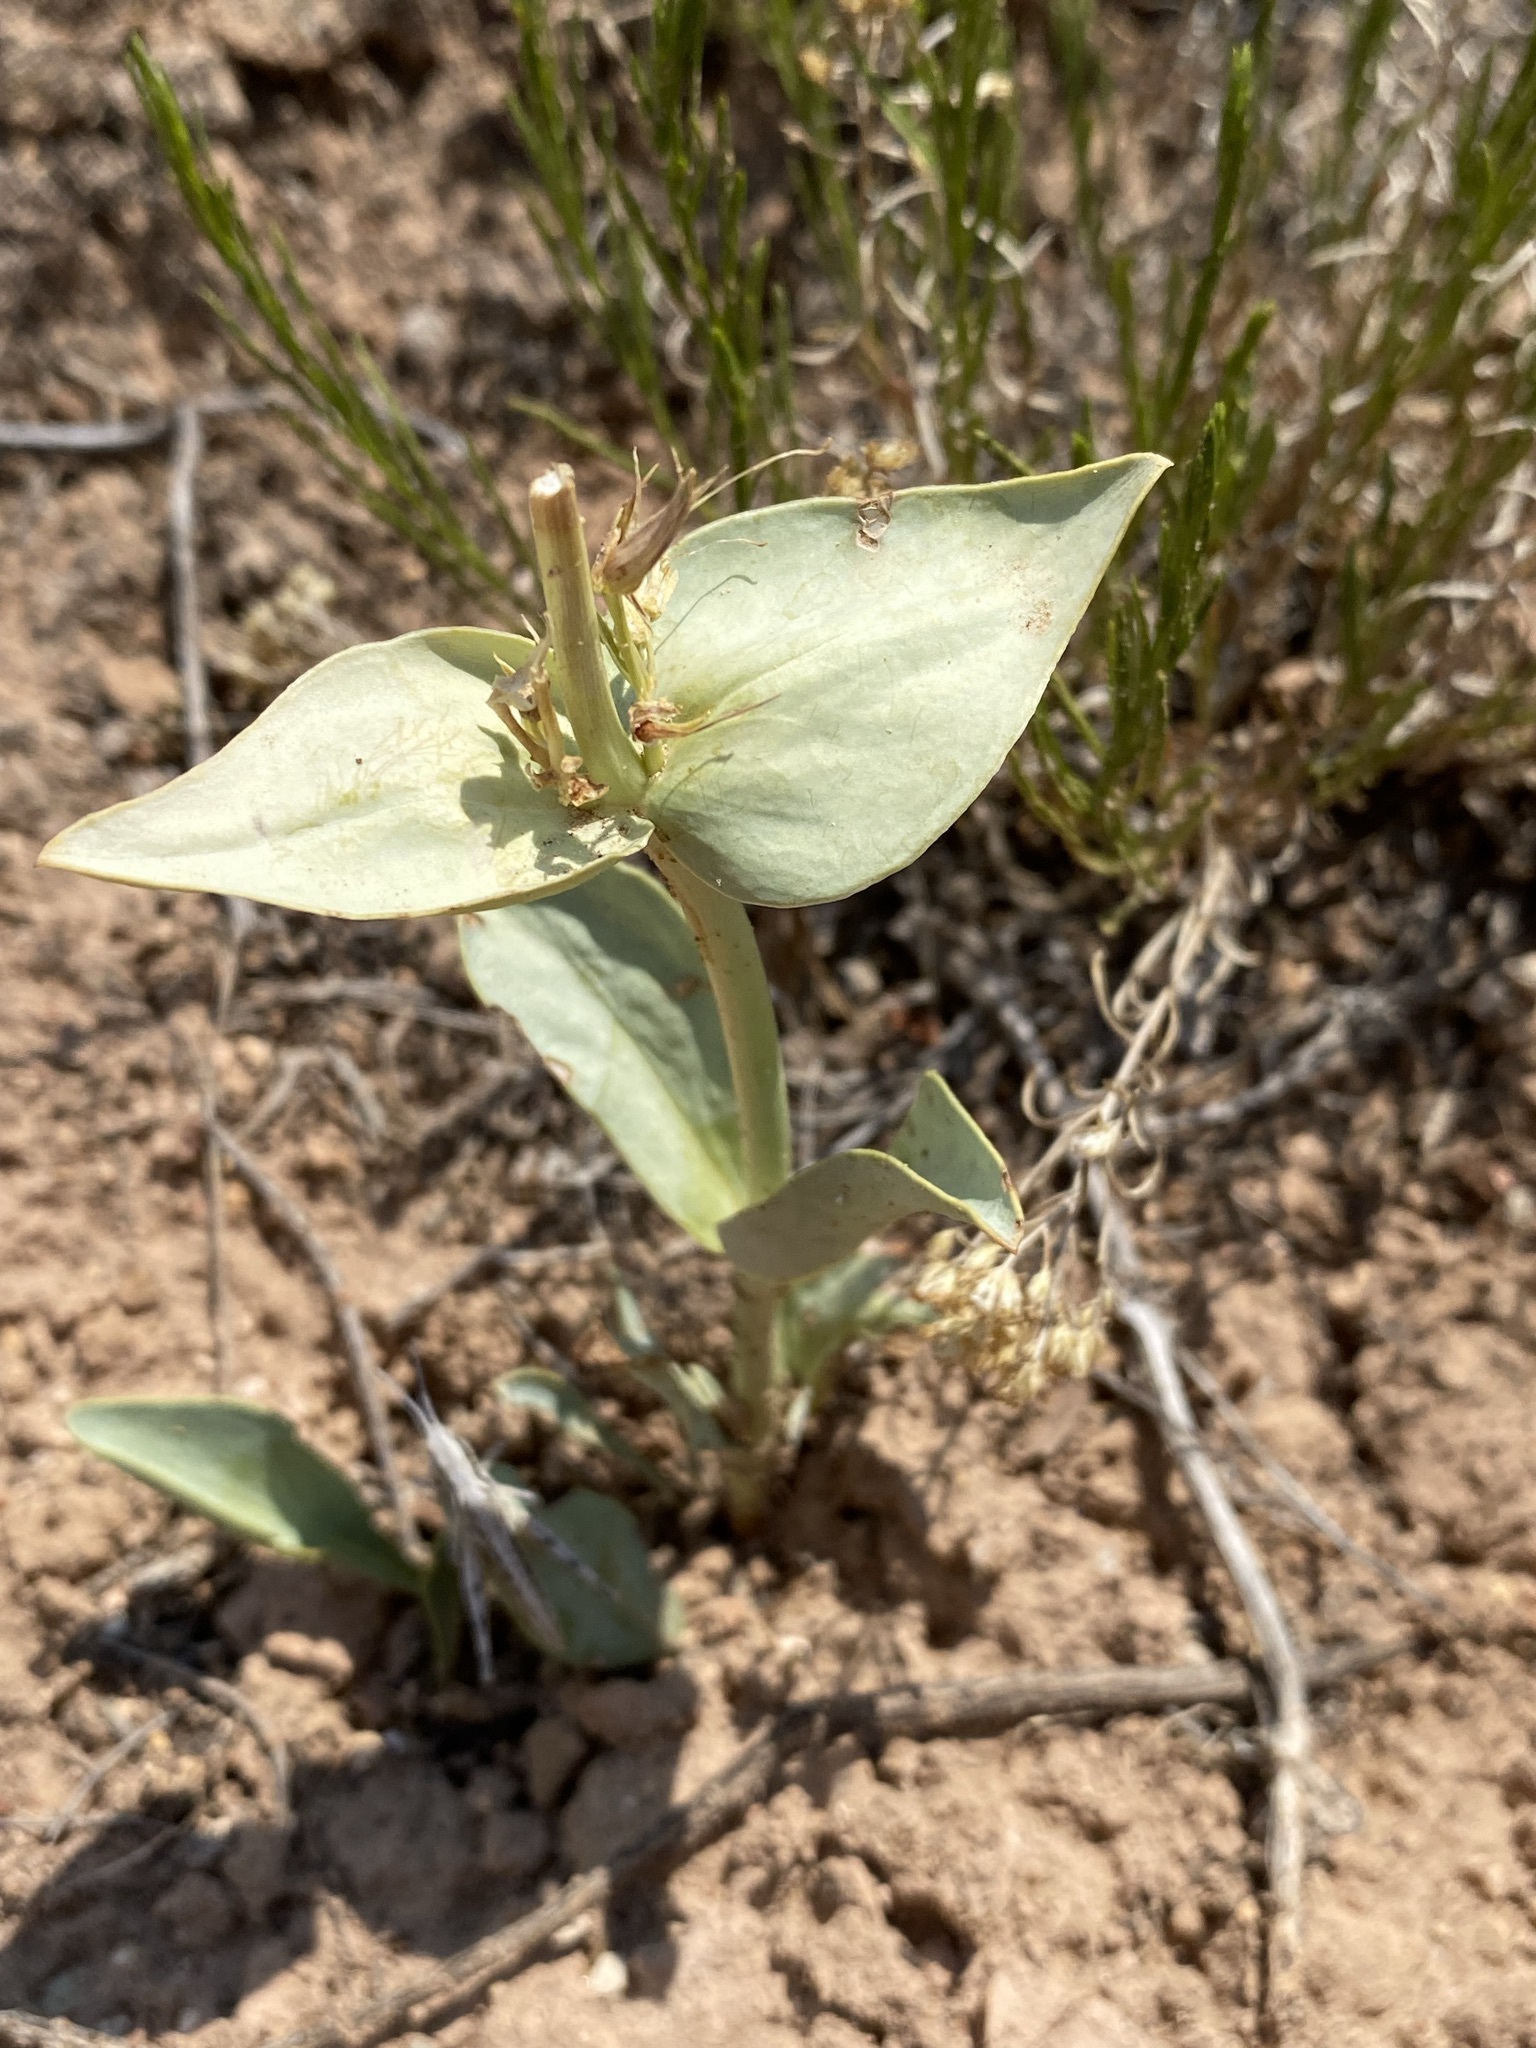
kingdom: Plantae
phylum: Tracheophyta
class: Magnoliopsida
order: Lamiales
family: Plantaginaceae
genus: Penstemon
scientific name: Penstemon nitidus
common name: Shining penstemon
